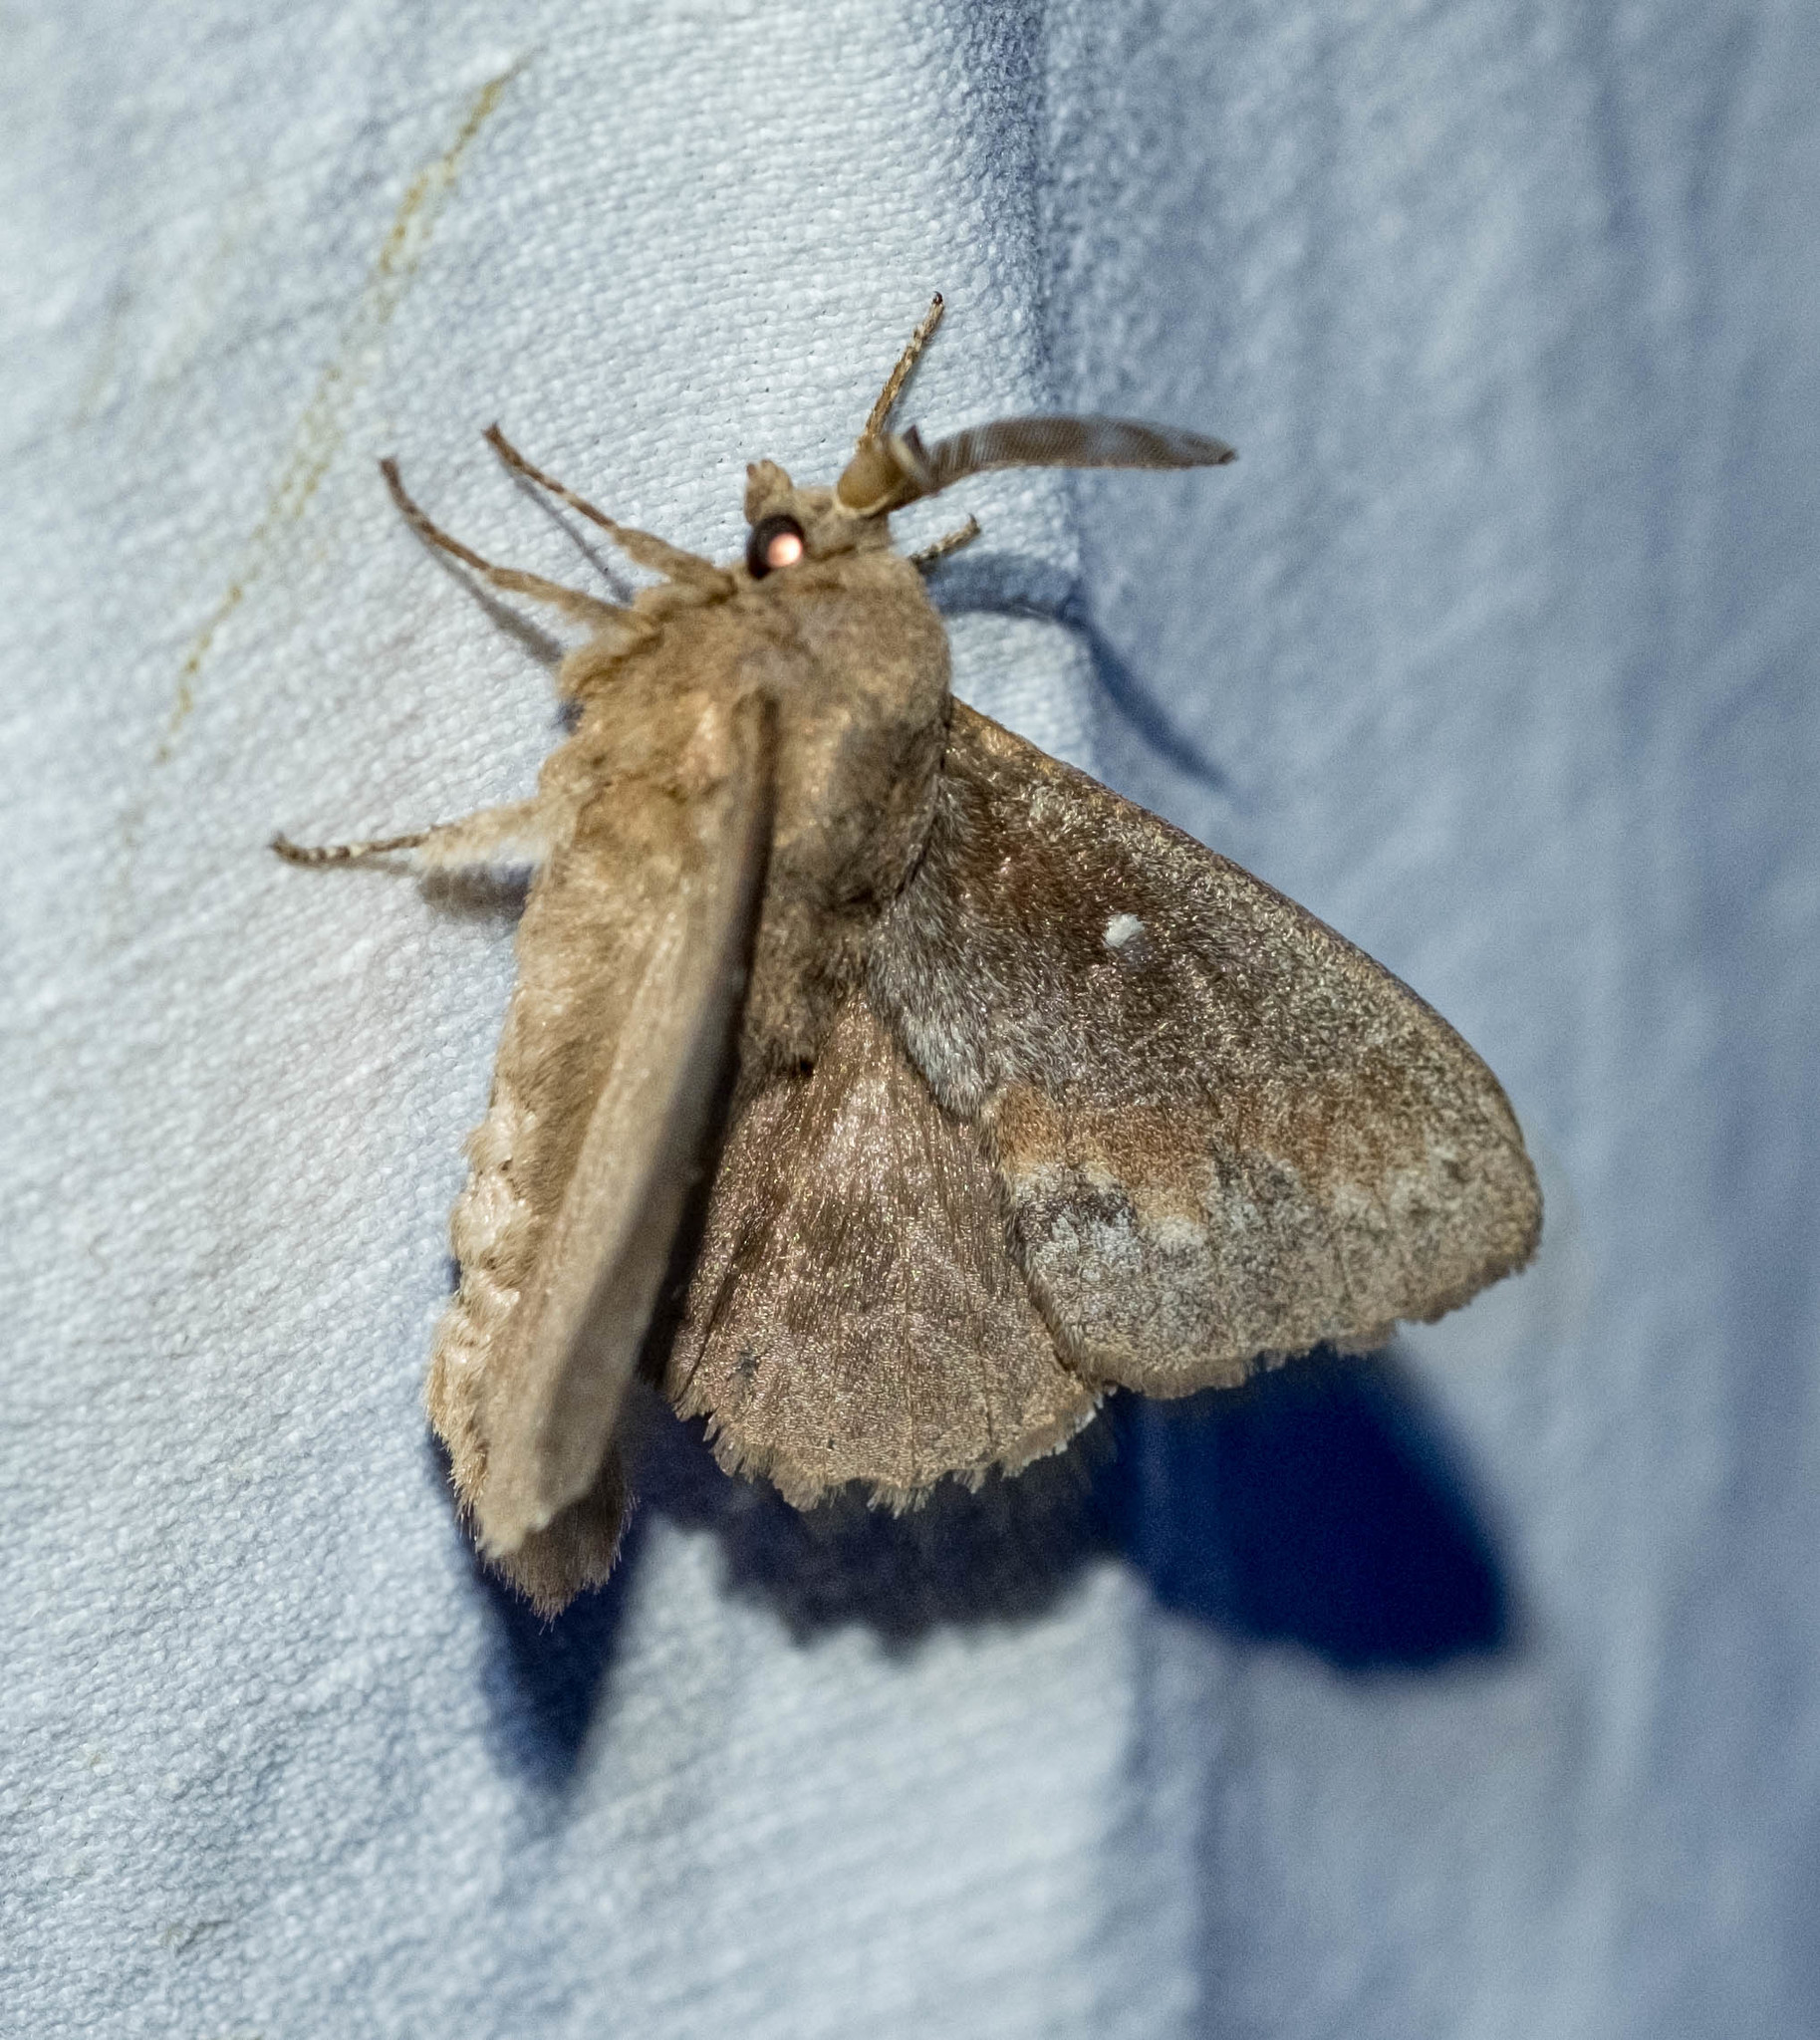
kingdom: Animalia
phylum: Arthropoda
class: Insecta
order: Lepidoptera
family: Lasiocampidae
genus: Dendrolimus
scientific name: Dendrolimus pini
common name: Pine-tree lappet
